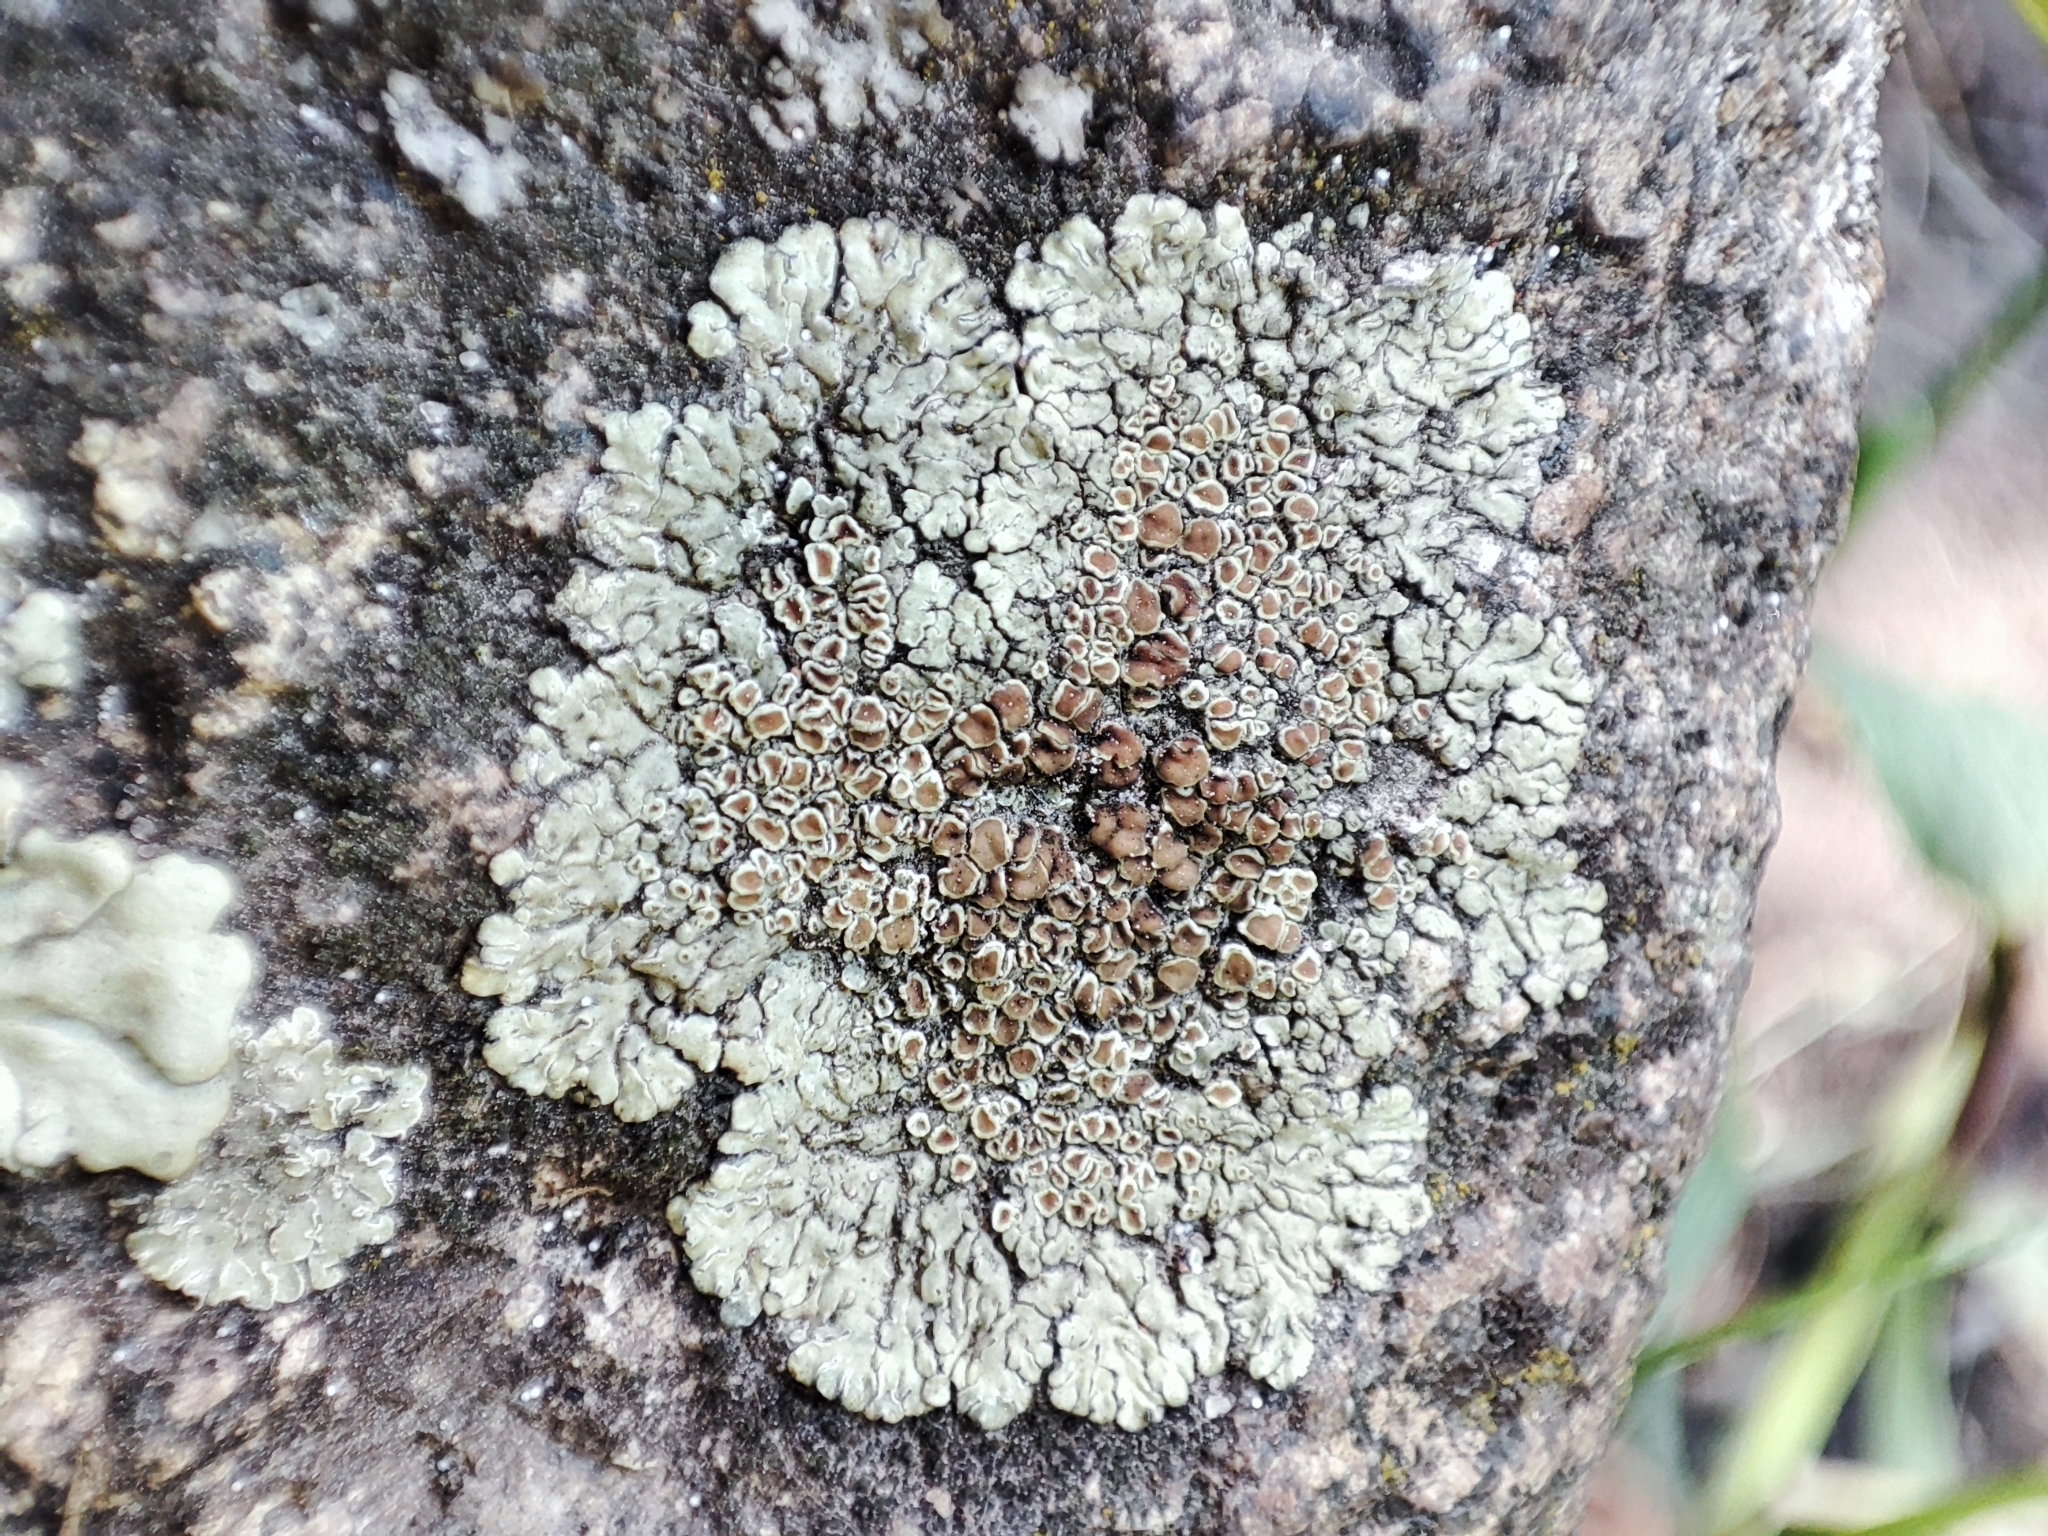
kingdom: Fungi
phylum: Ascomycota
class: Lecanoromycetes
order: Lecanorales
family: Lecanoraceae
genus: Protoparmeliopsis
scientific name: Protoparmeliopsis muralis
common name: Stonewall rim lichen
